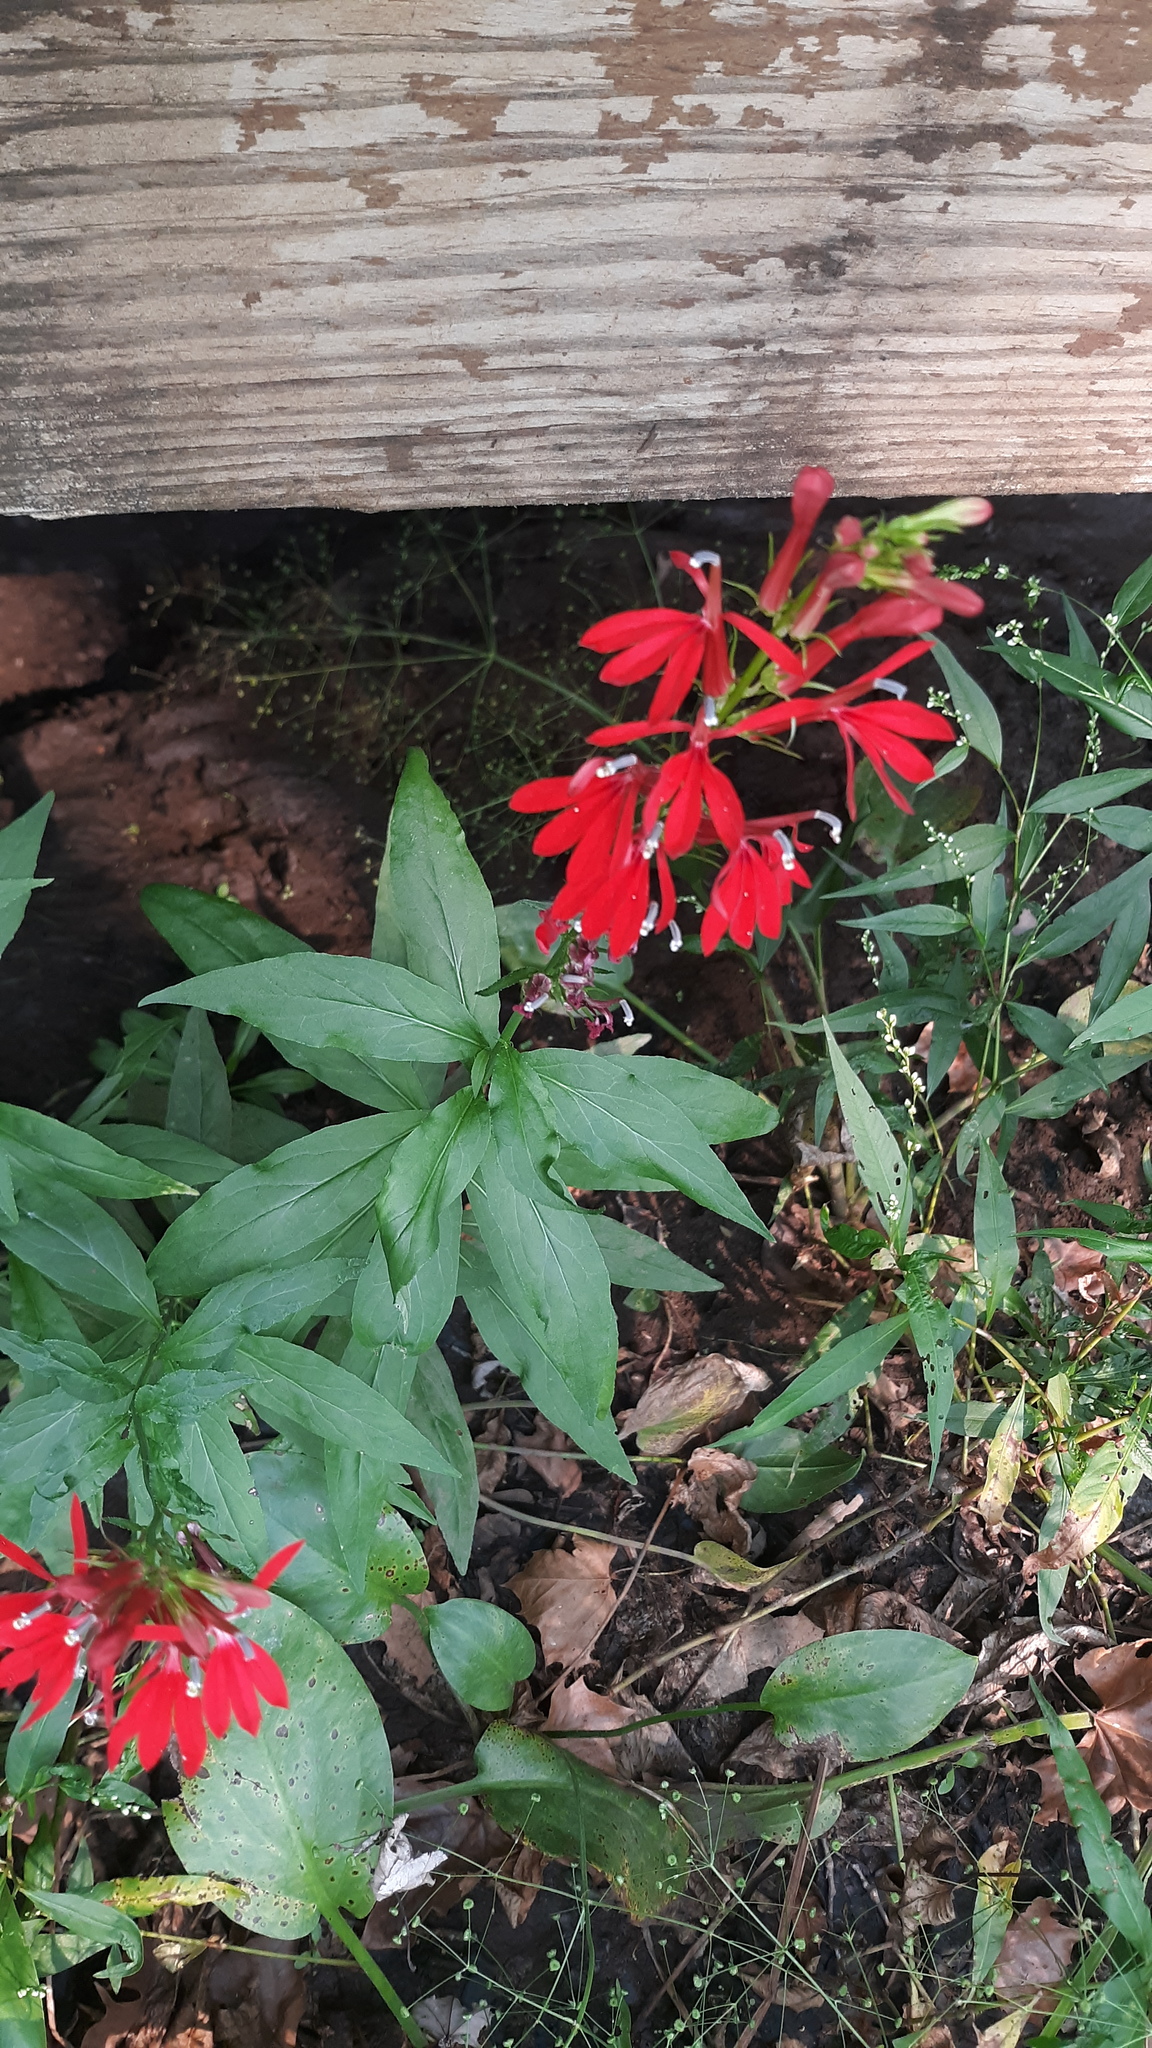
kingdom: Plantae
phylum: Tracheophyta
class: Magnoliopsida
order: Asterales
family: Campanulaceae
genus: Lobelia
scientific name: Lobelia cardinalis
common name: Cardinal flower
